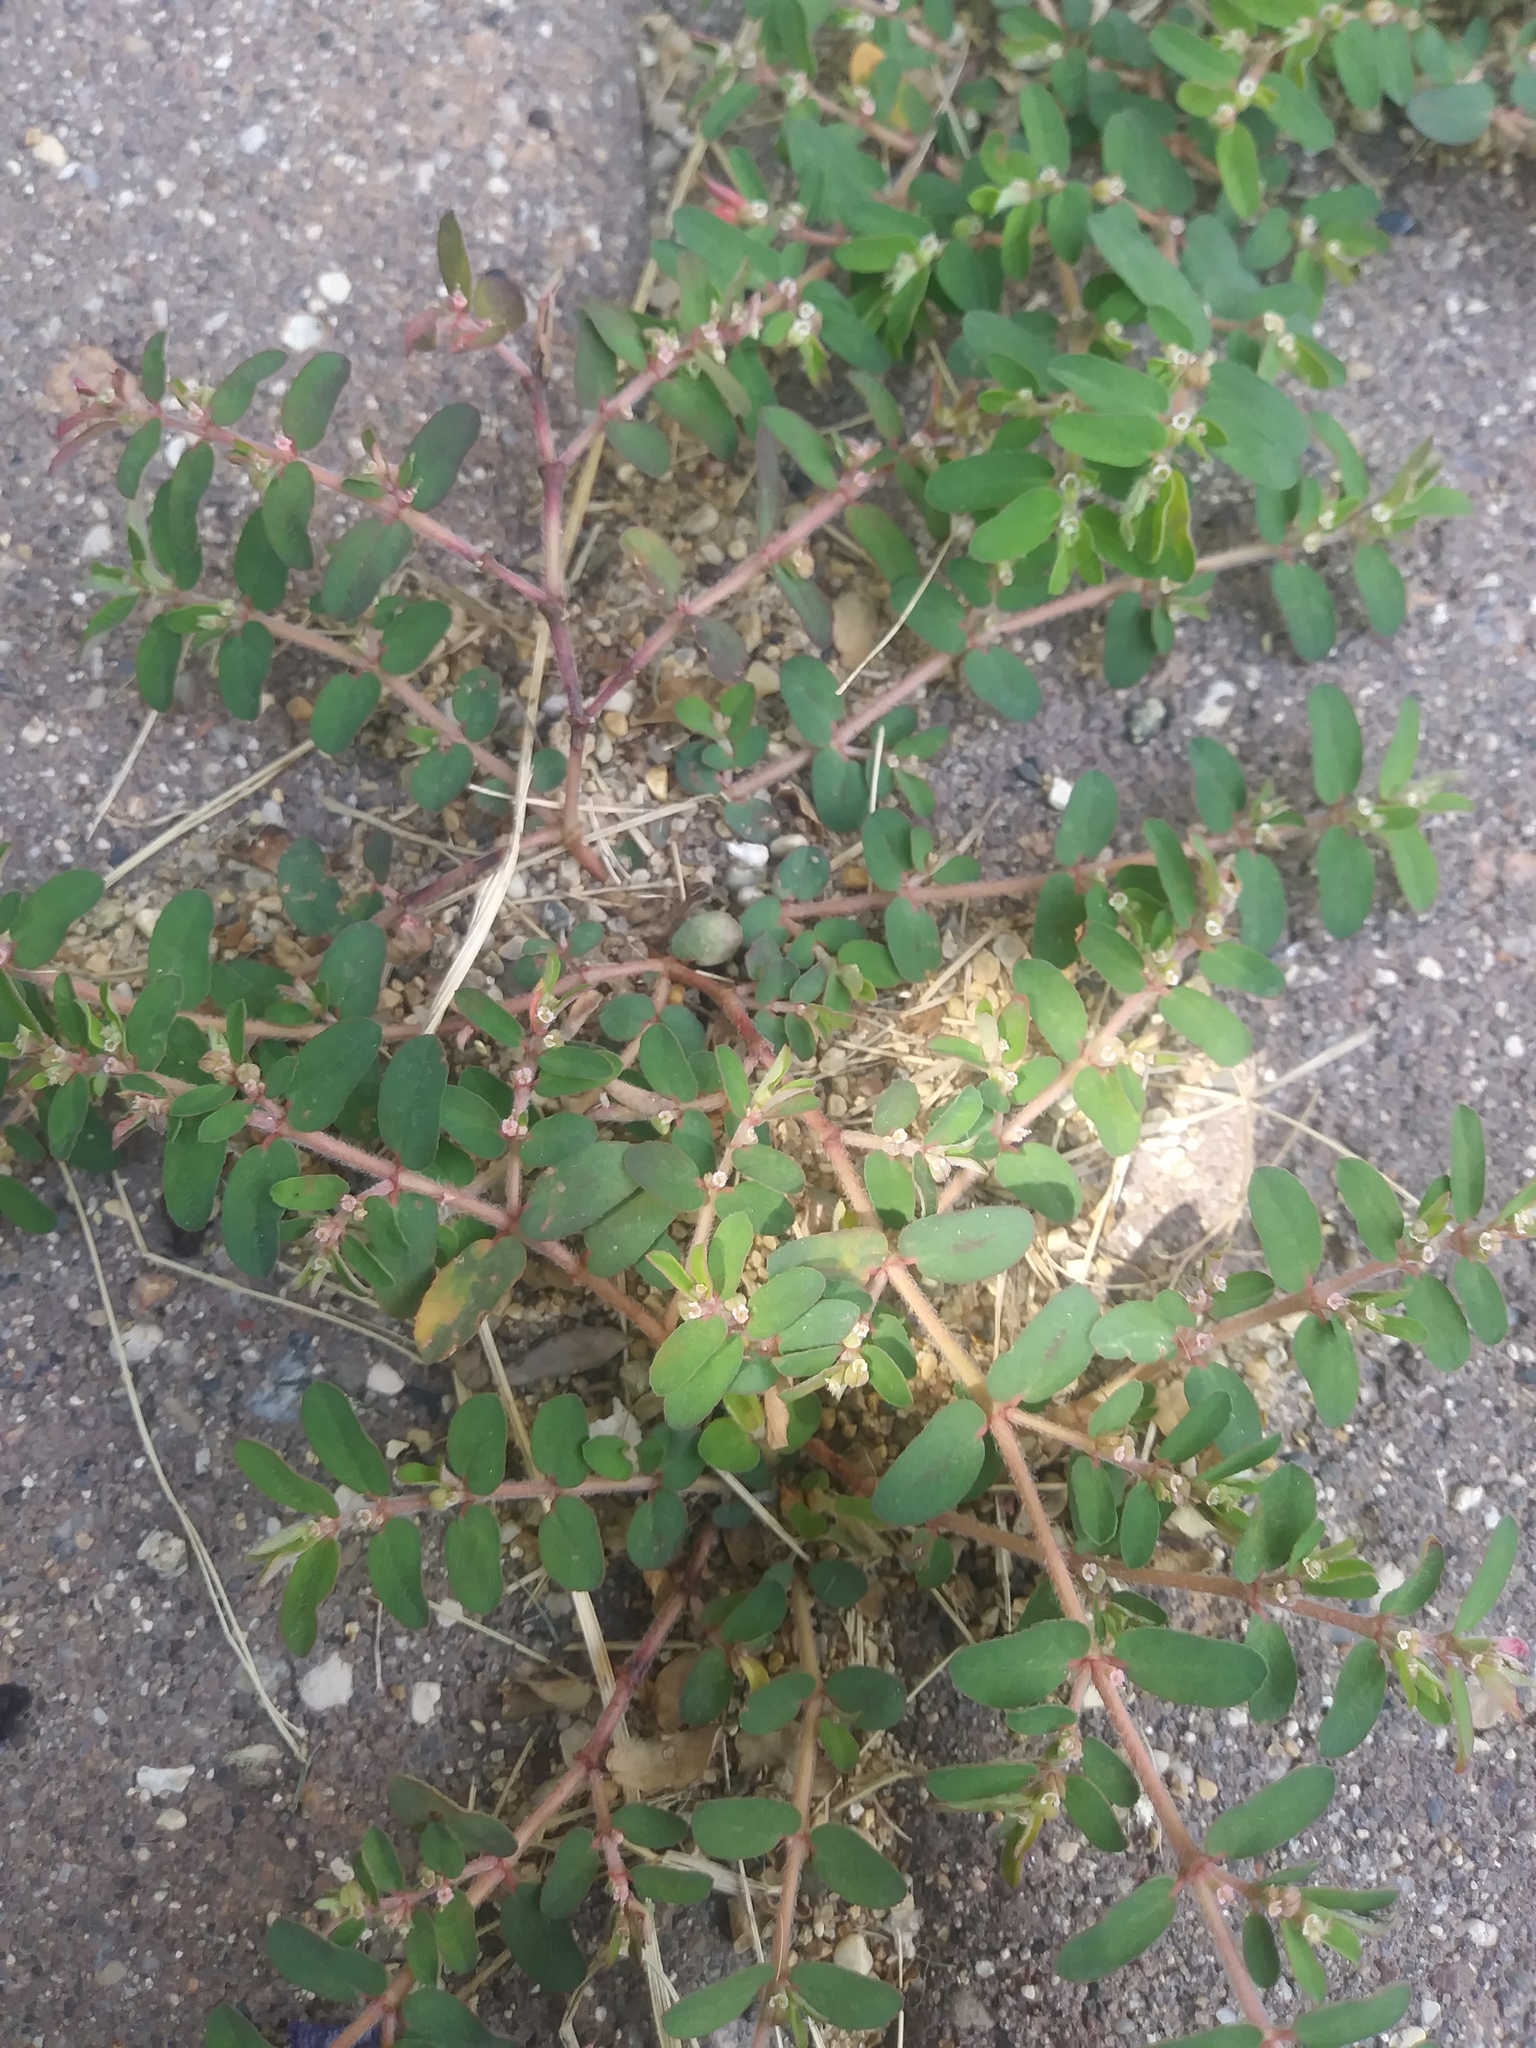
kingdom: Plantae
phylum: Tracheophyta
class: Magnoliopsida
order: Malpighiales
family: Euphorbiaceae
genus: Euphorbia
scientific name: Euphorbia maculata
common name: Spotted spurge
